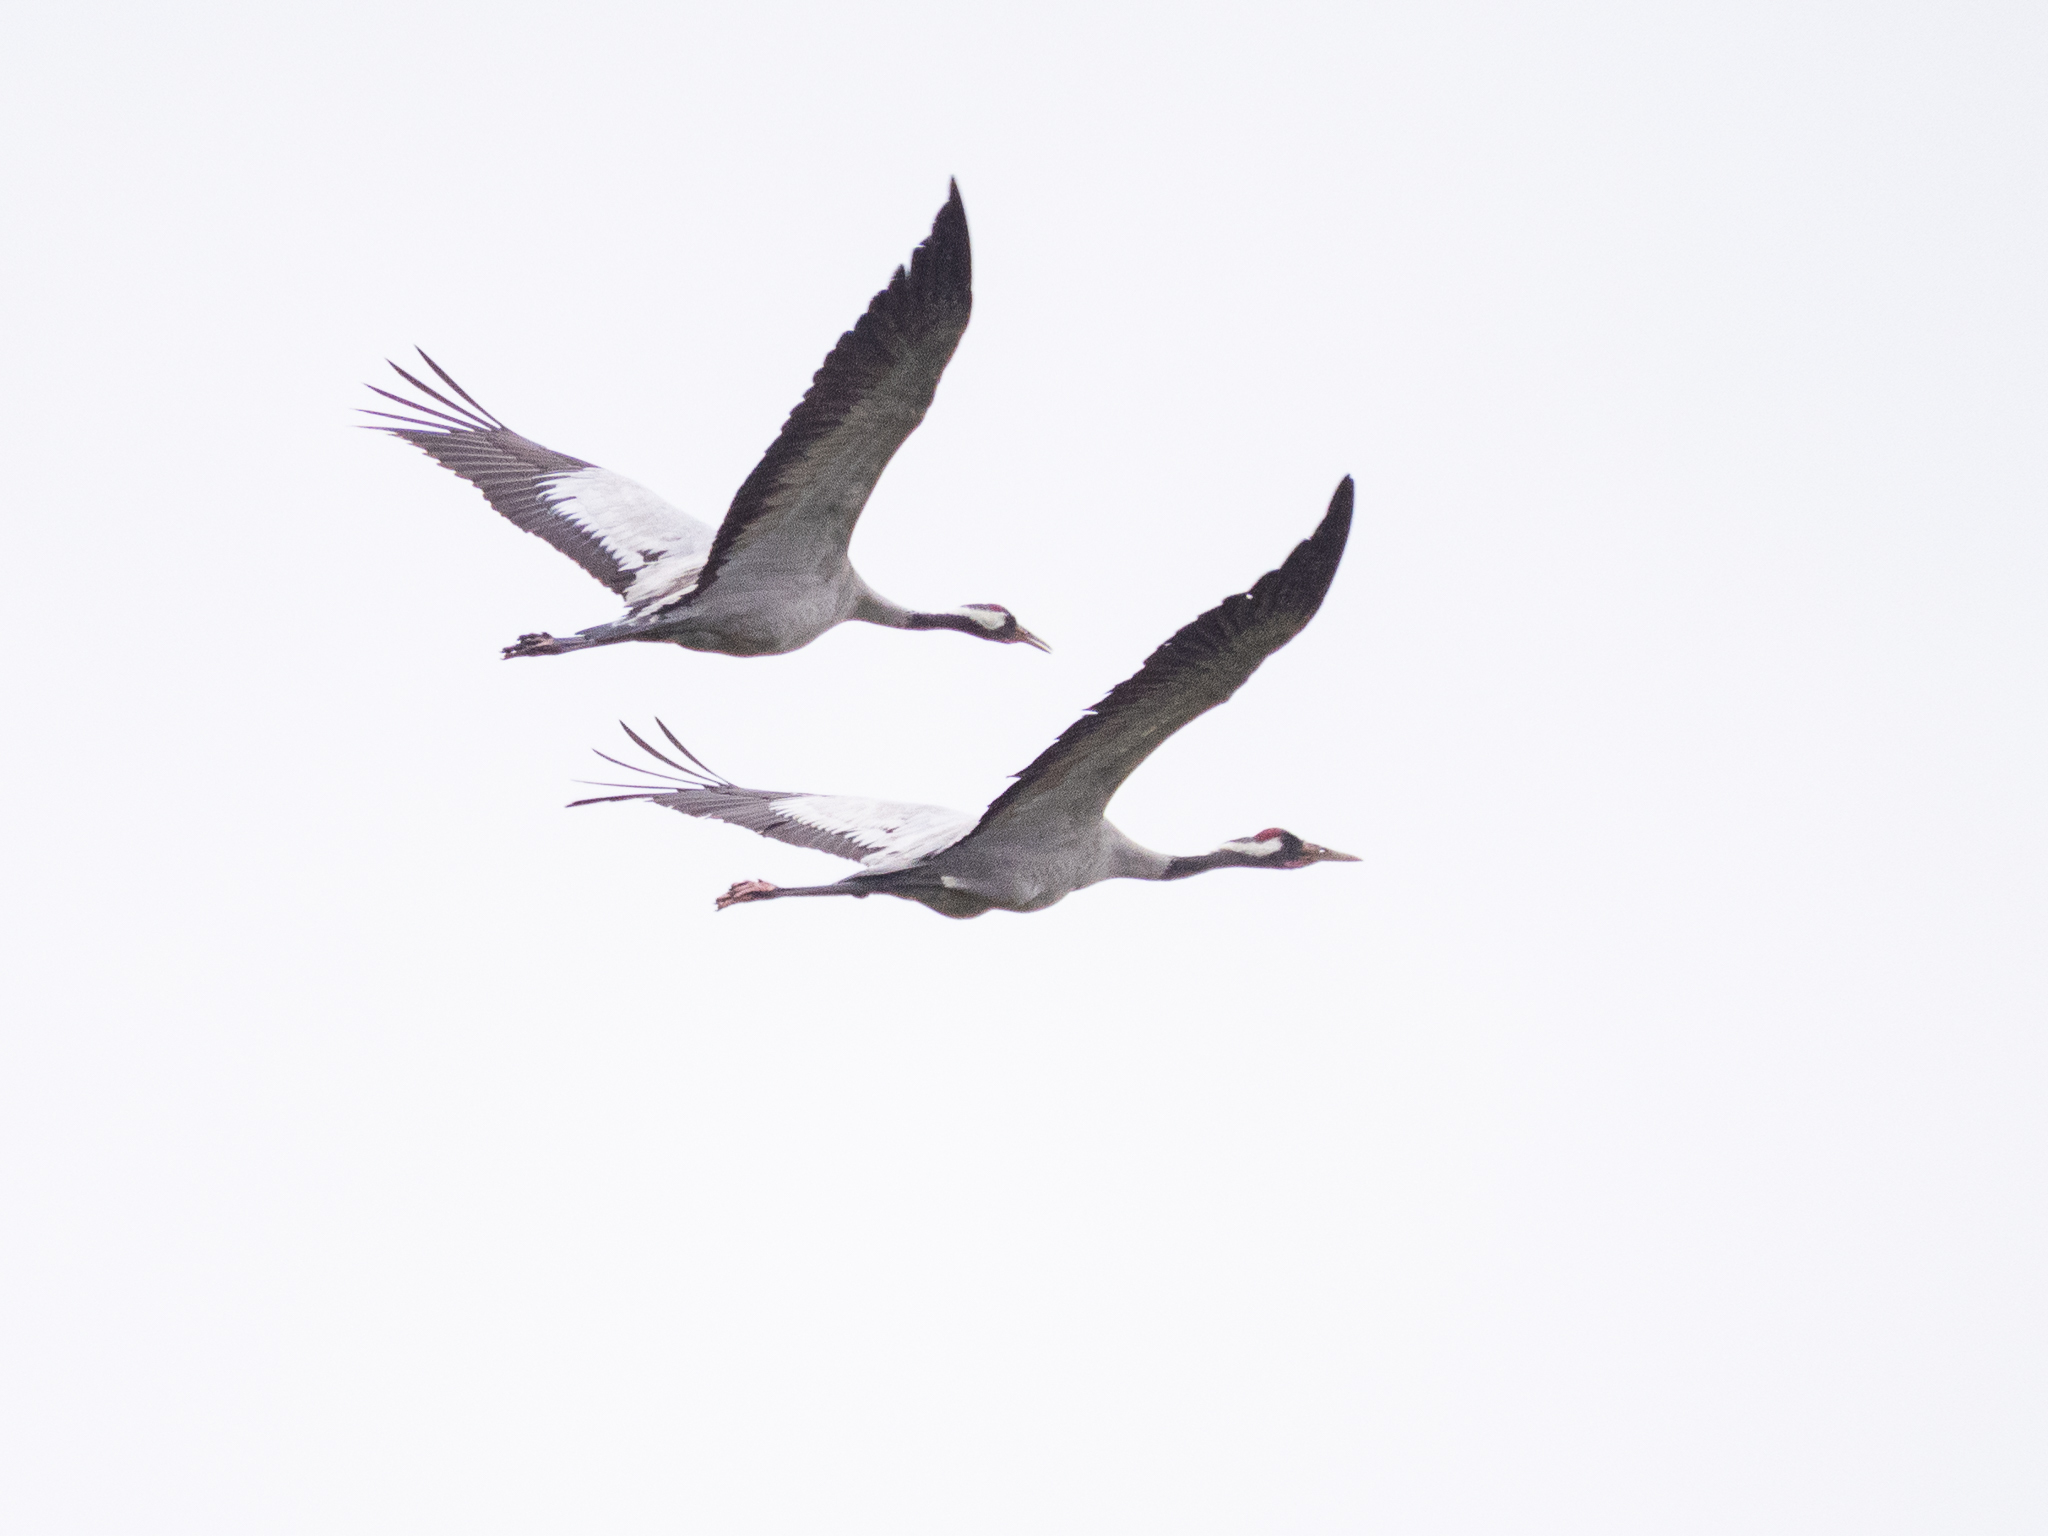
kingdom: Animalia
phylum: Chordata
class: Aves
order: Gruiformes
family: Gruidae
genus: Grus
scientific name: Grus grus
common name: Common crane
